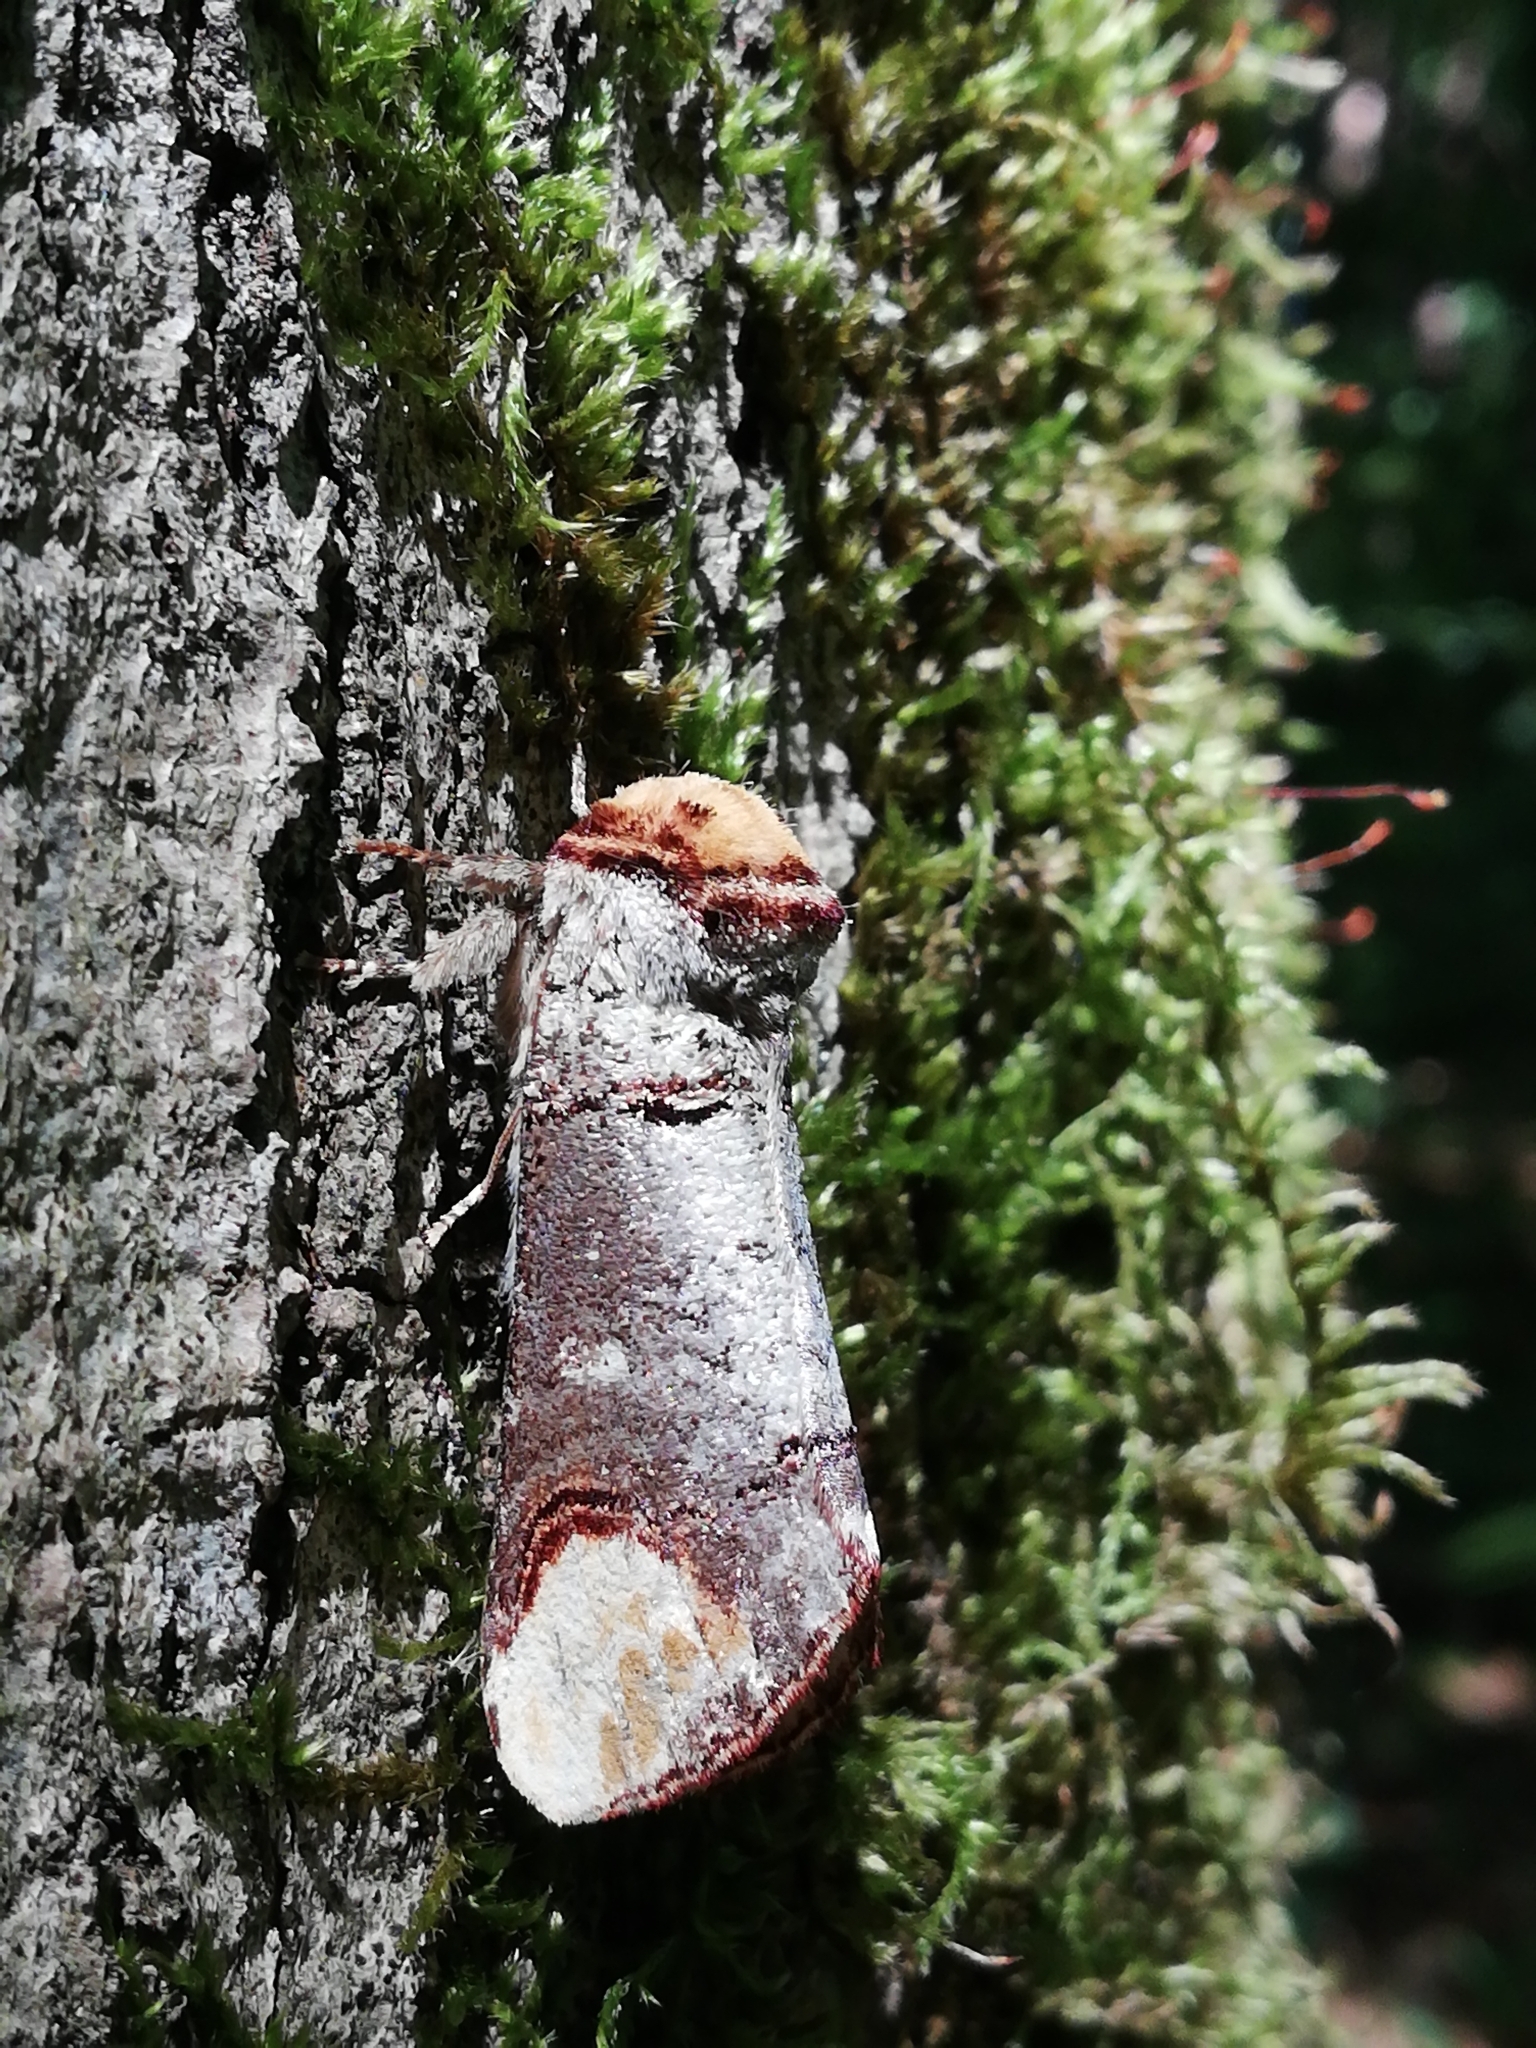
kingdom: Animalia
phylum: Arthropoda
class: Insecta
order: Lepidoptera
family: Notodontidae
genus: Phalera
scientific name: Phalera bucephala
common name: Buff-tip
